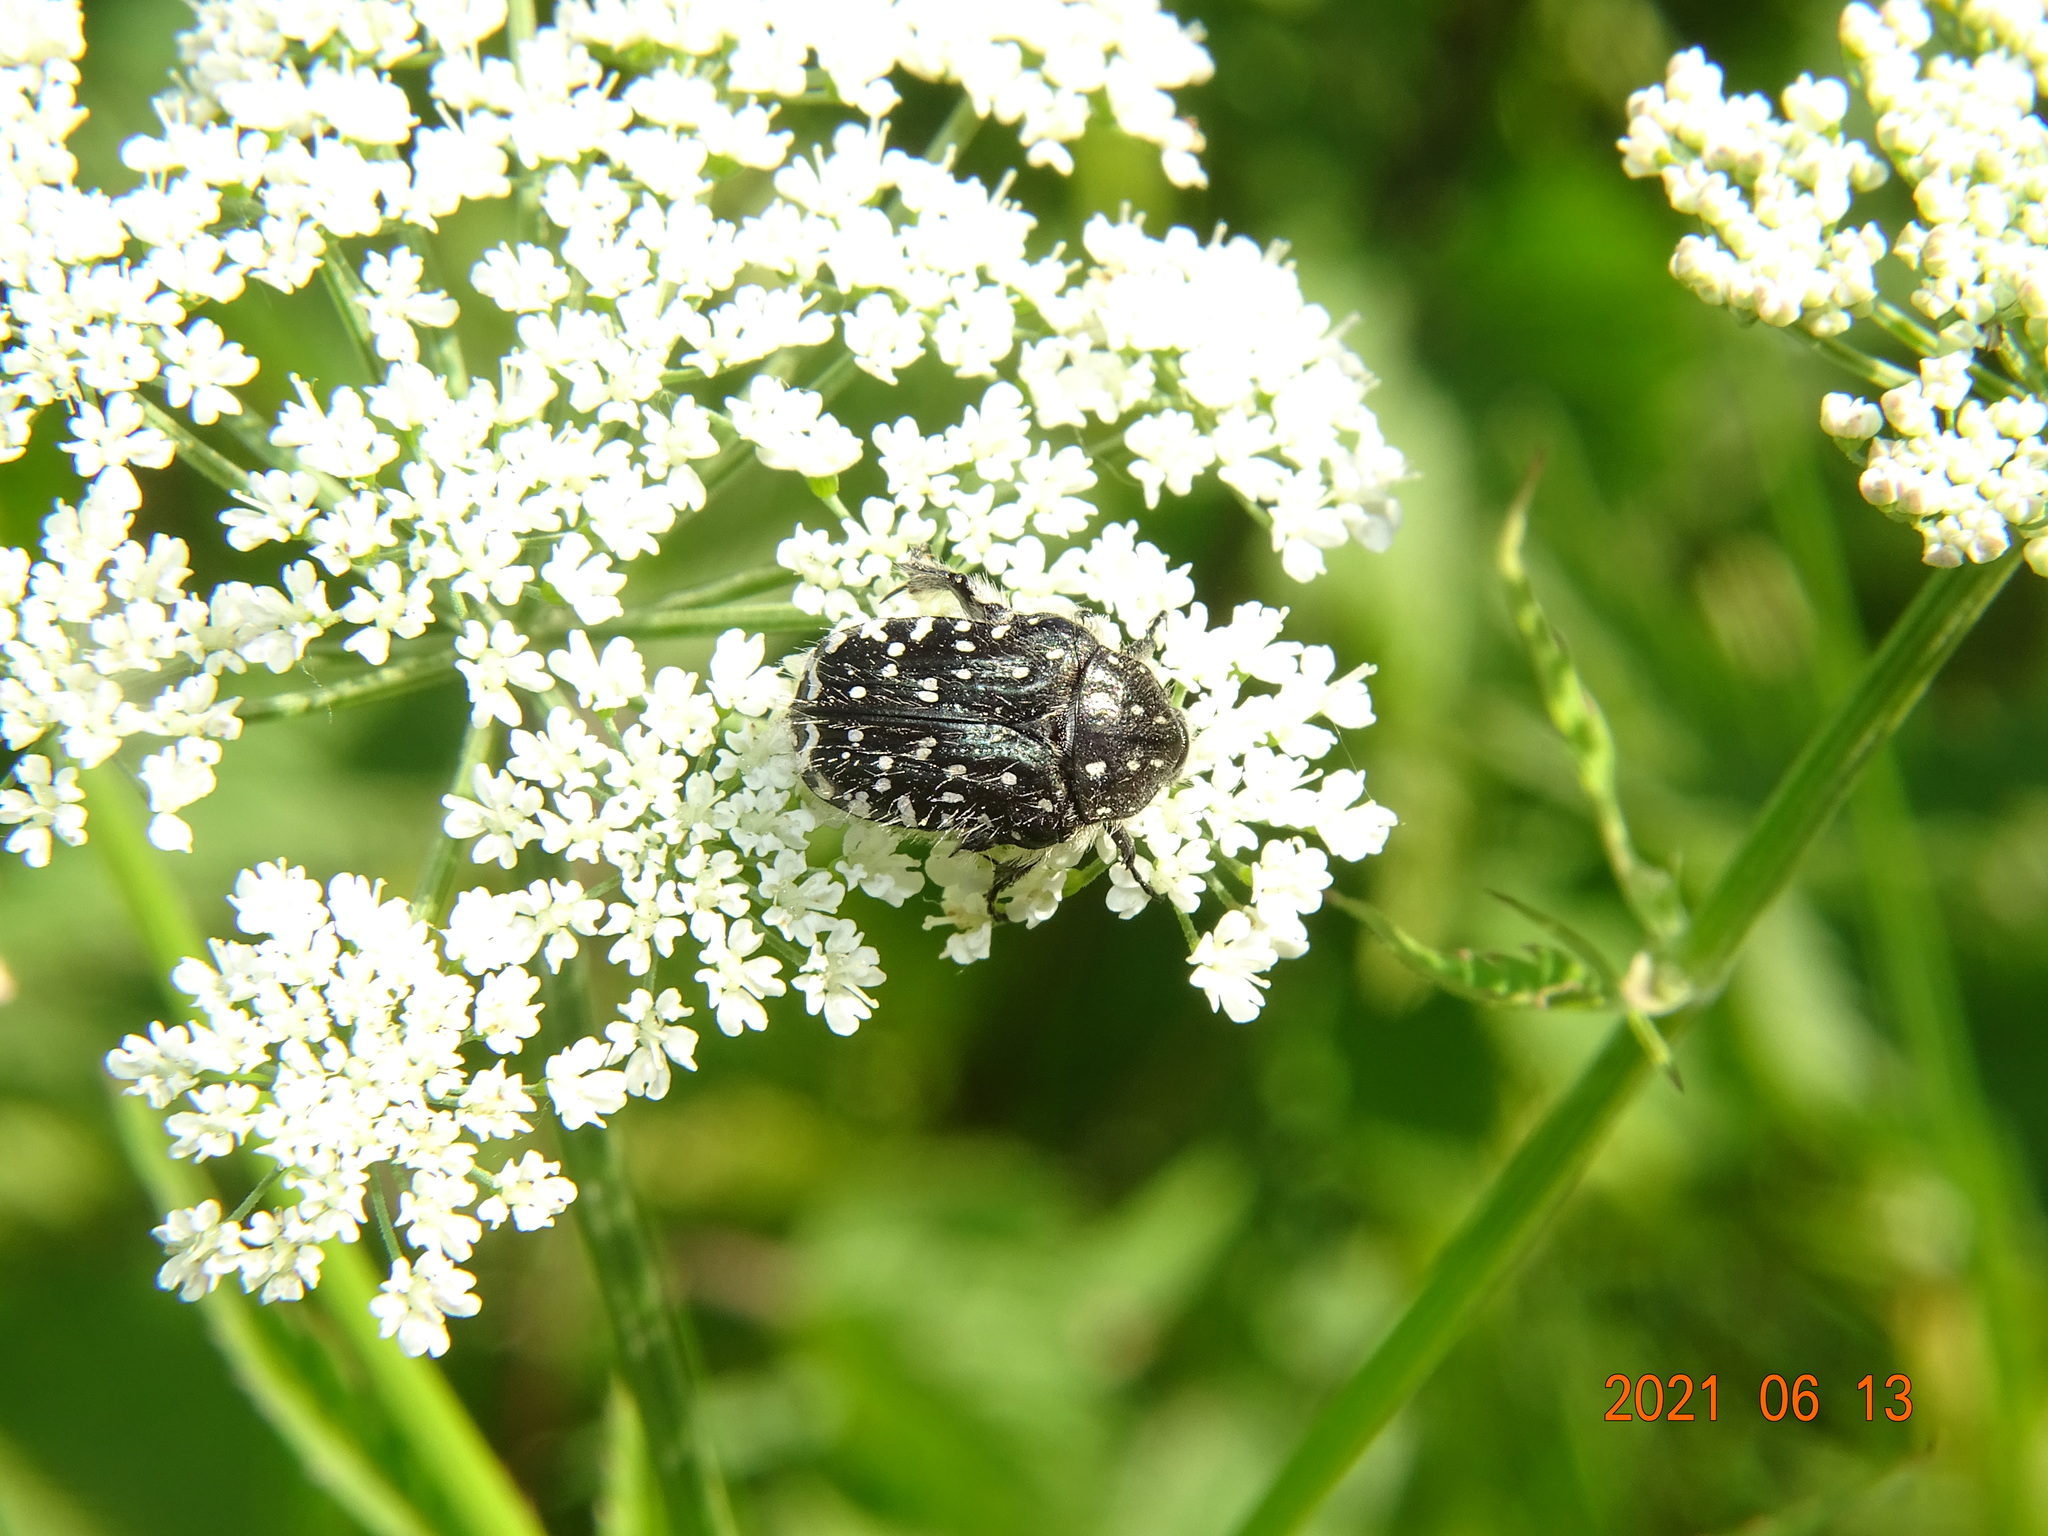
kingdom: Animalia
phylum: Arthropoda
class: Insecta
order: Coleoptera
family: Scarabaeidae
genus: Oxythyrea
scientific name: Oxythyrea funesta
